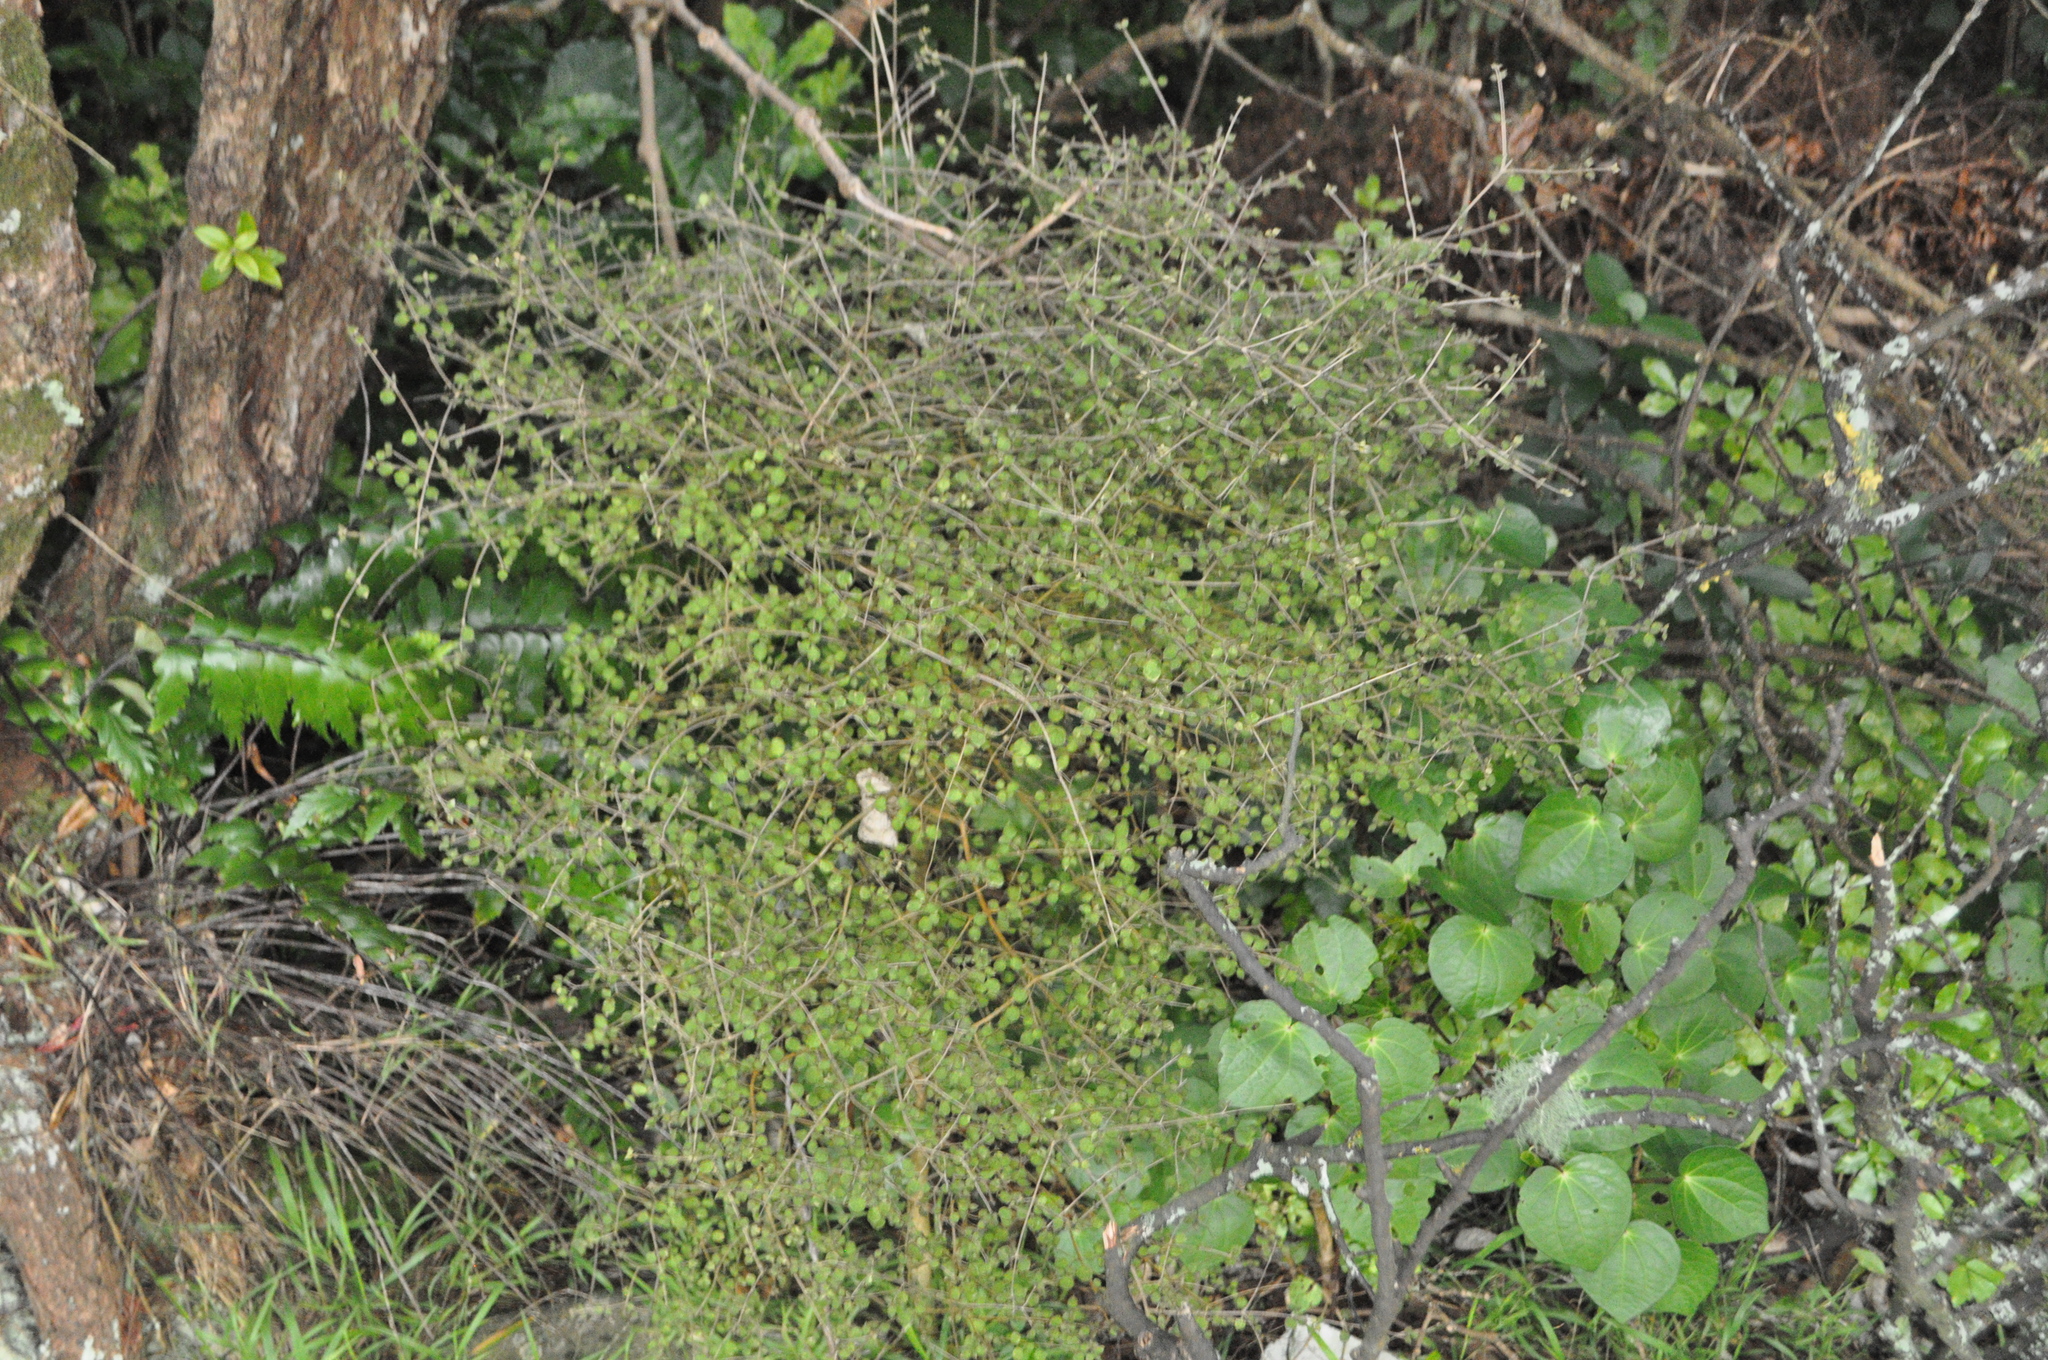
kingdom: Plantae
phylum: Tracheophyta
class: Magnoliopsida
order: Gentianales
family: Rubiaceae
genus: Coprosma
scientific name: Coprosma areolata
